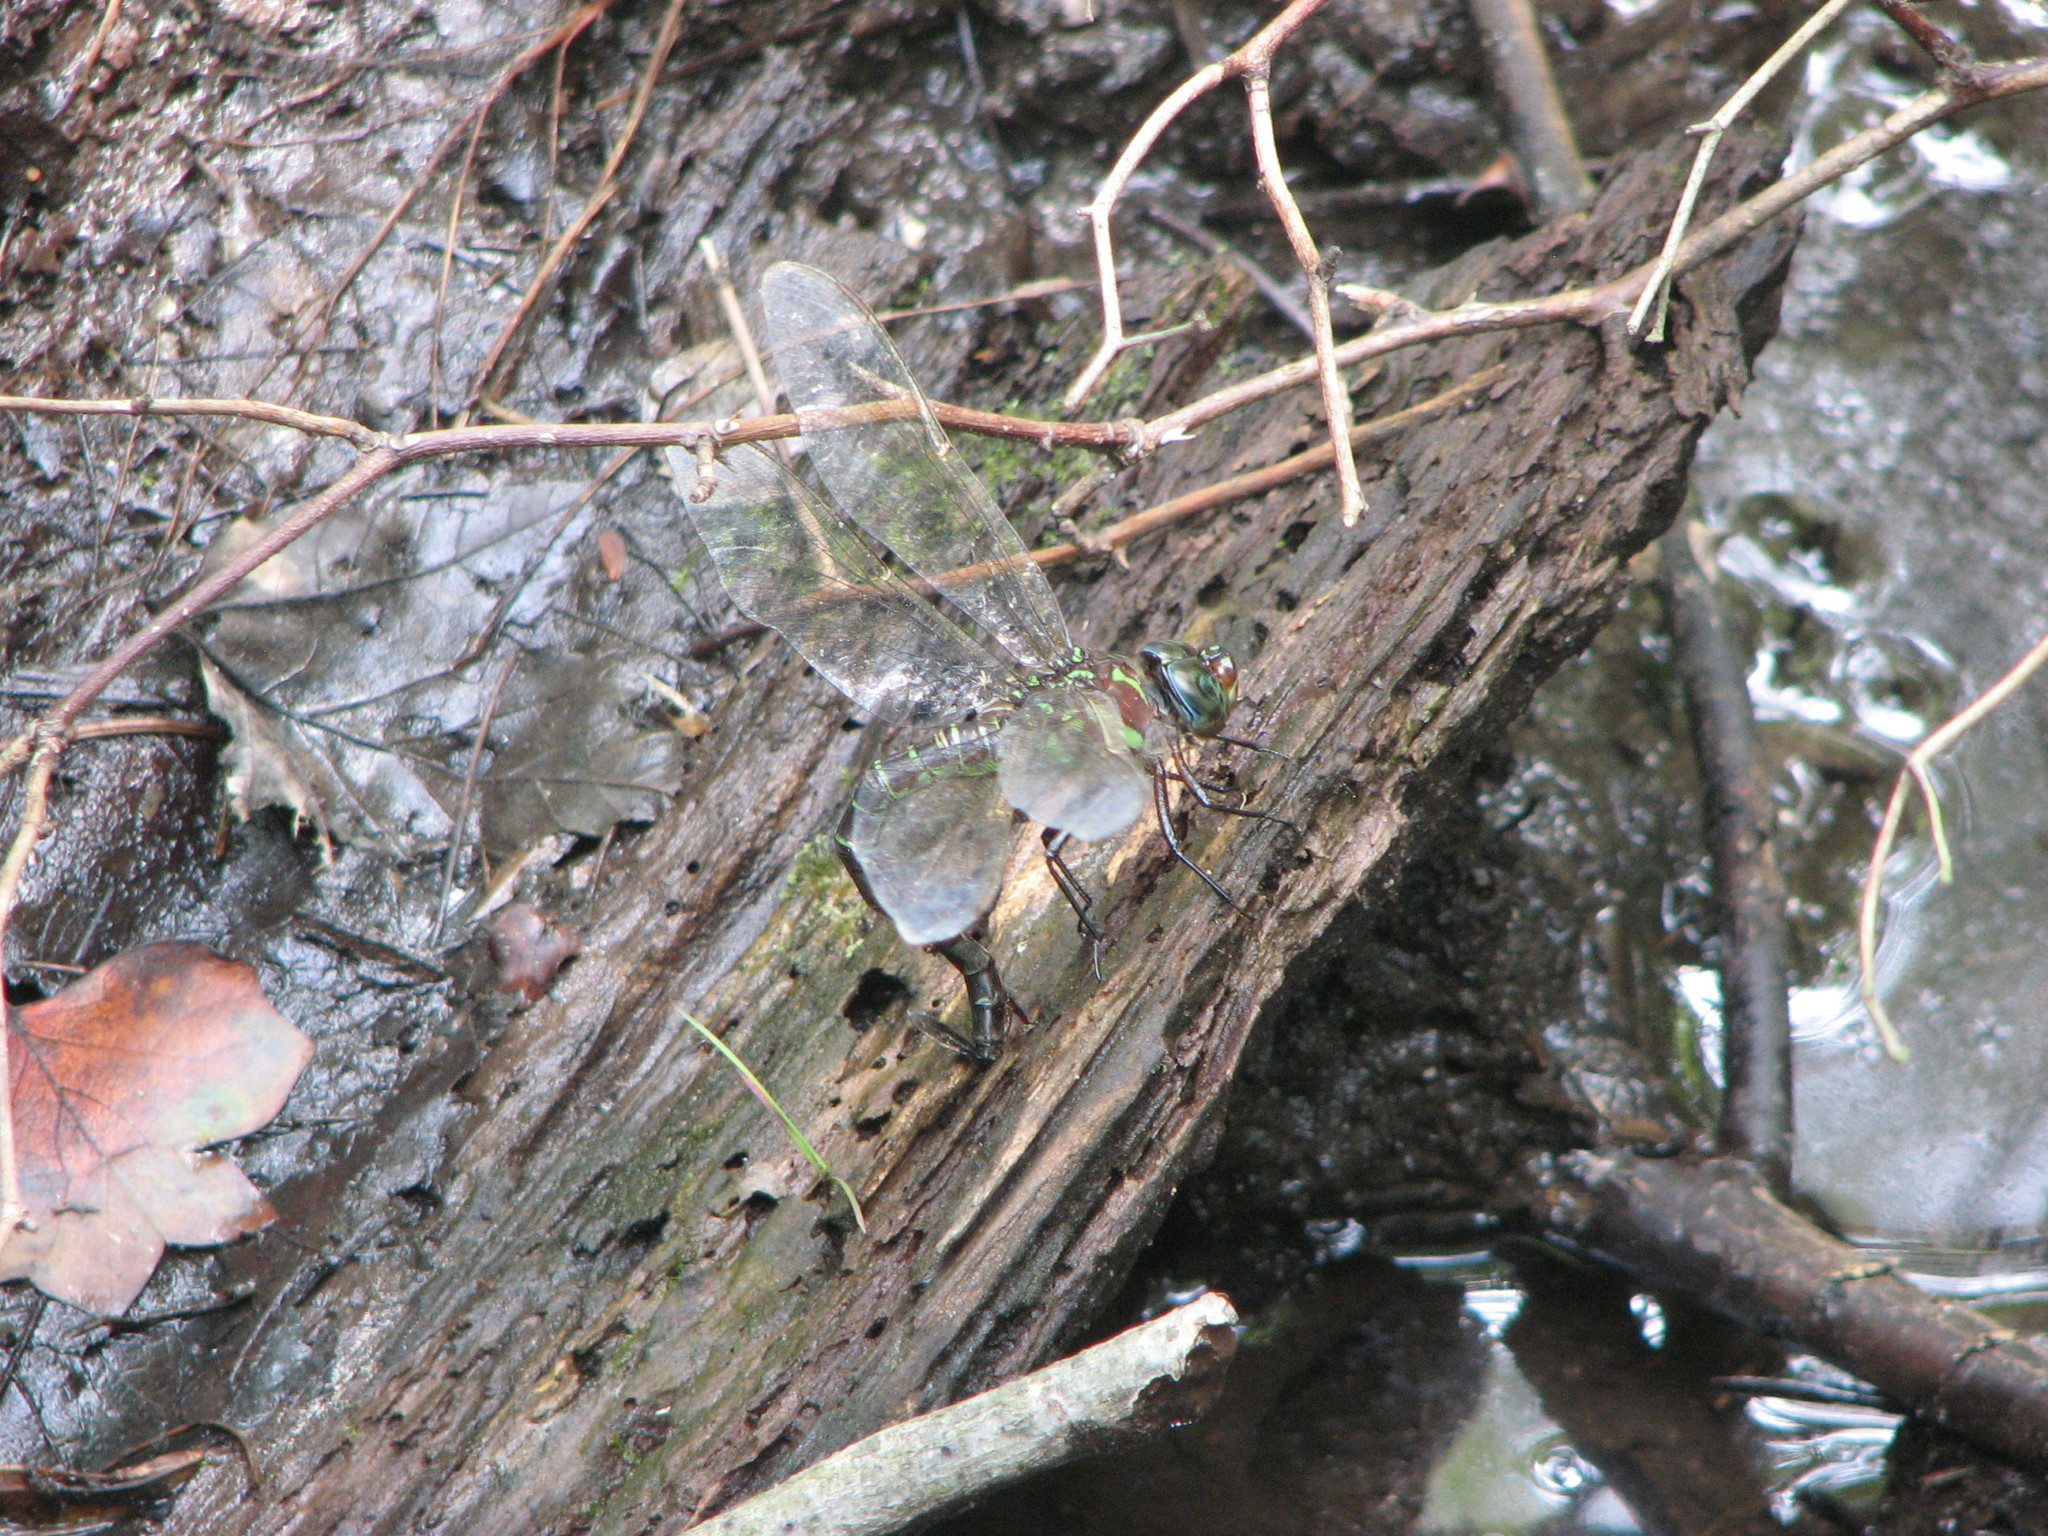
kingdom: Animalia
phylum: Arthropoda
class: Insecta
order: Odonata
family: Aeshnidae
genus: Epiaeschna
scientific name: Epiaeschna heros
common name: Swamp darner
